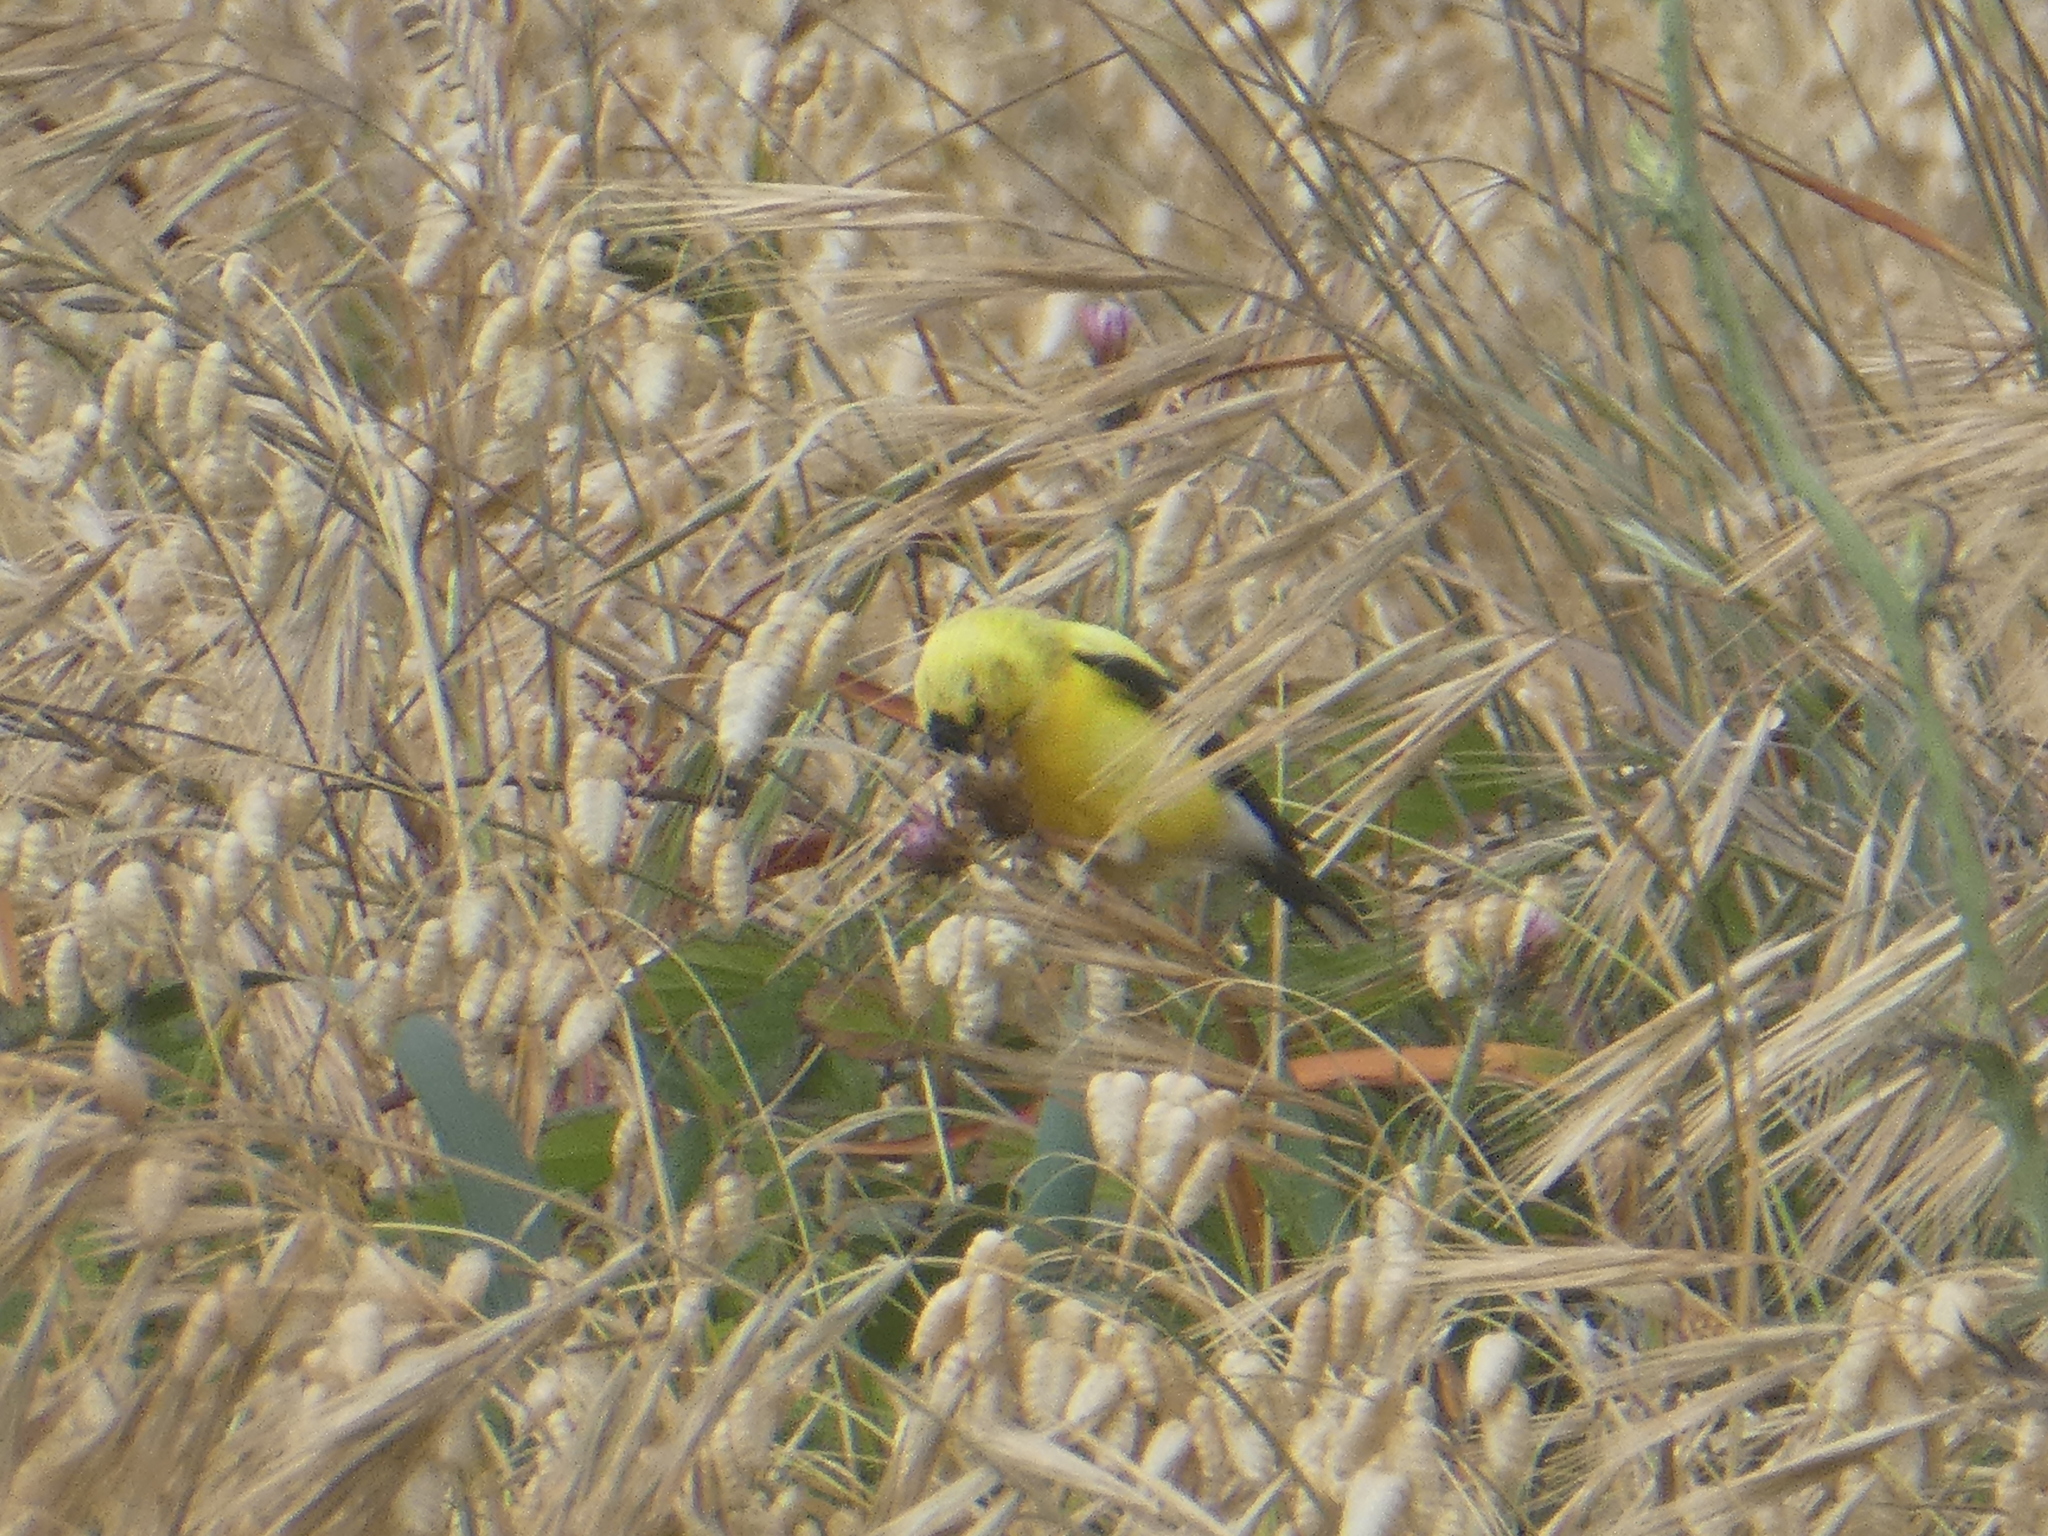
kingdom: Animalia
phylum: Chordata
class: Aves
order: Passeriformes
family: Fringillidae
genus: Spinus
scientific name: Spinus tristis
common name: American goldfinch
